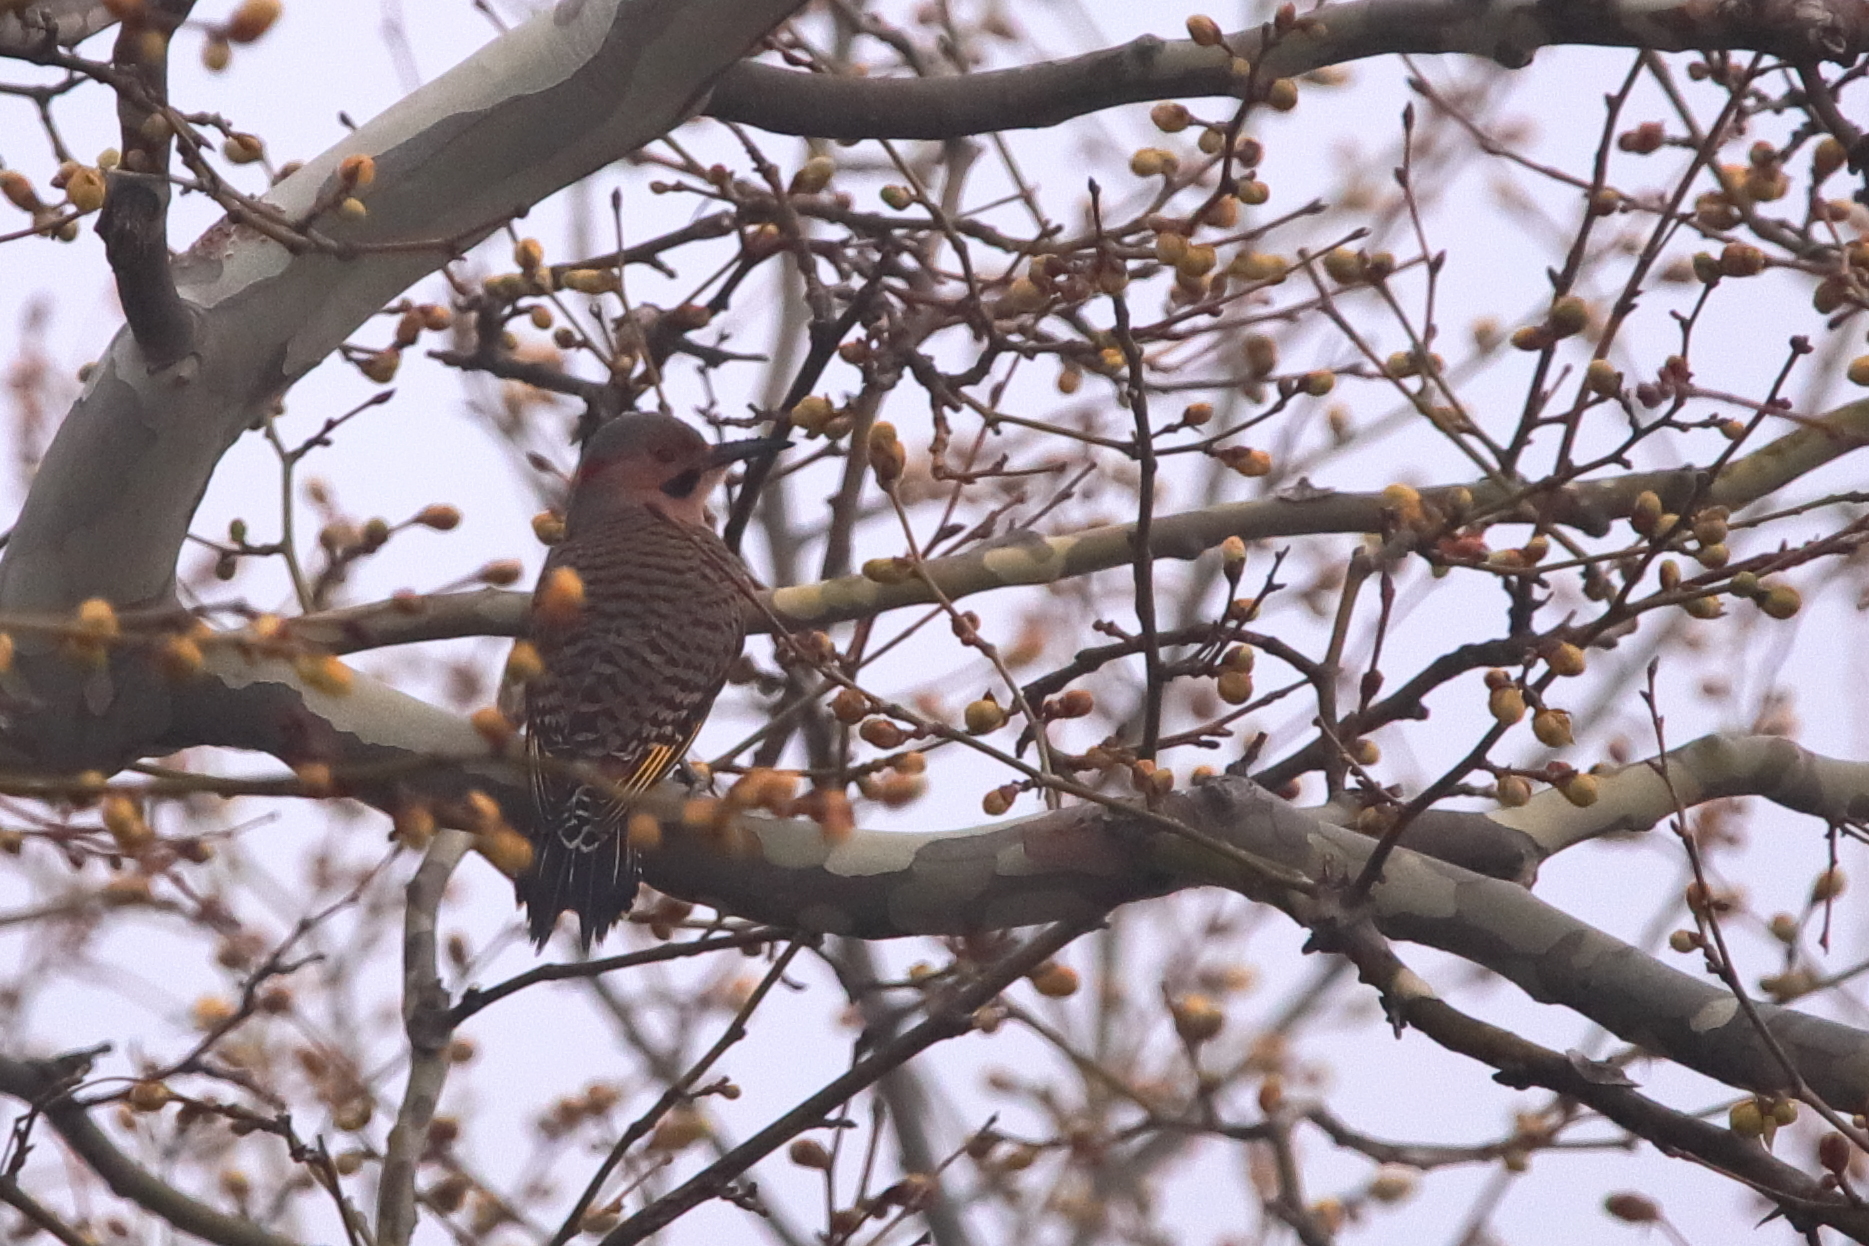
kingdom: Animalia
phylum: Chordata
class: Aves
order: Piciformes
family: Picidae
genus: Colaptes
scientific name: Colaptes auratus
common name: Northern flicker
